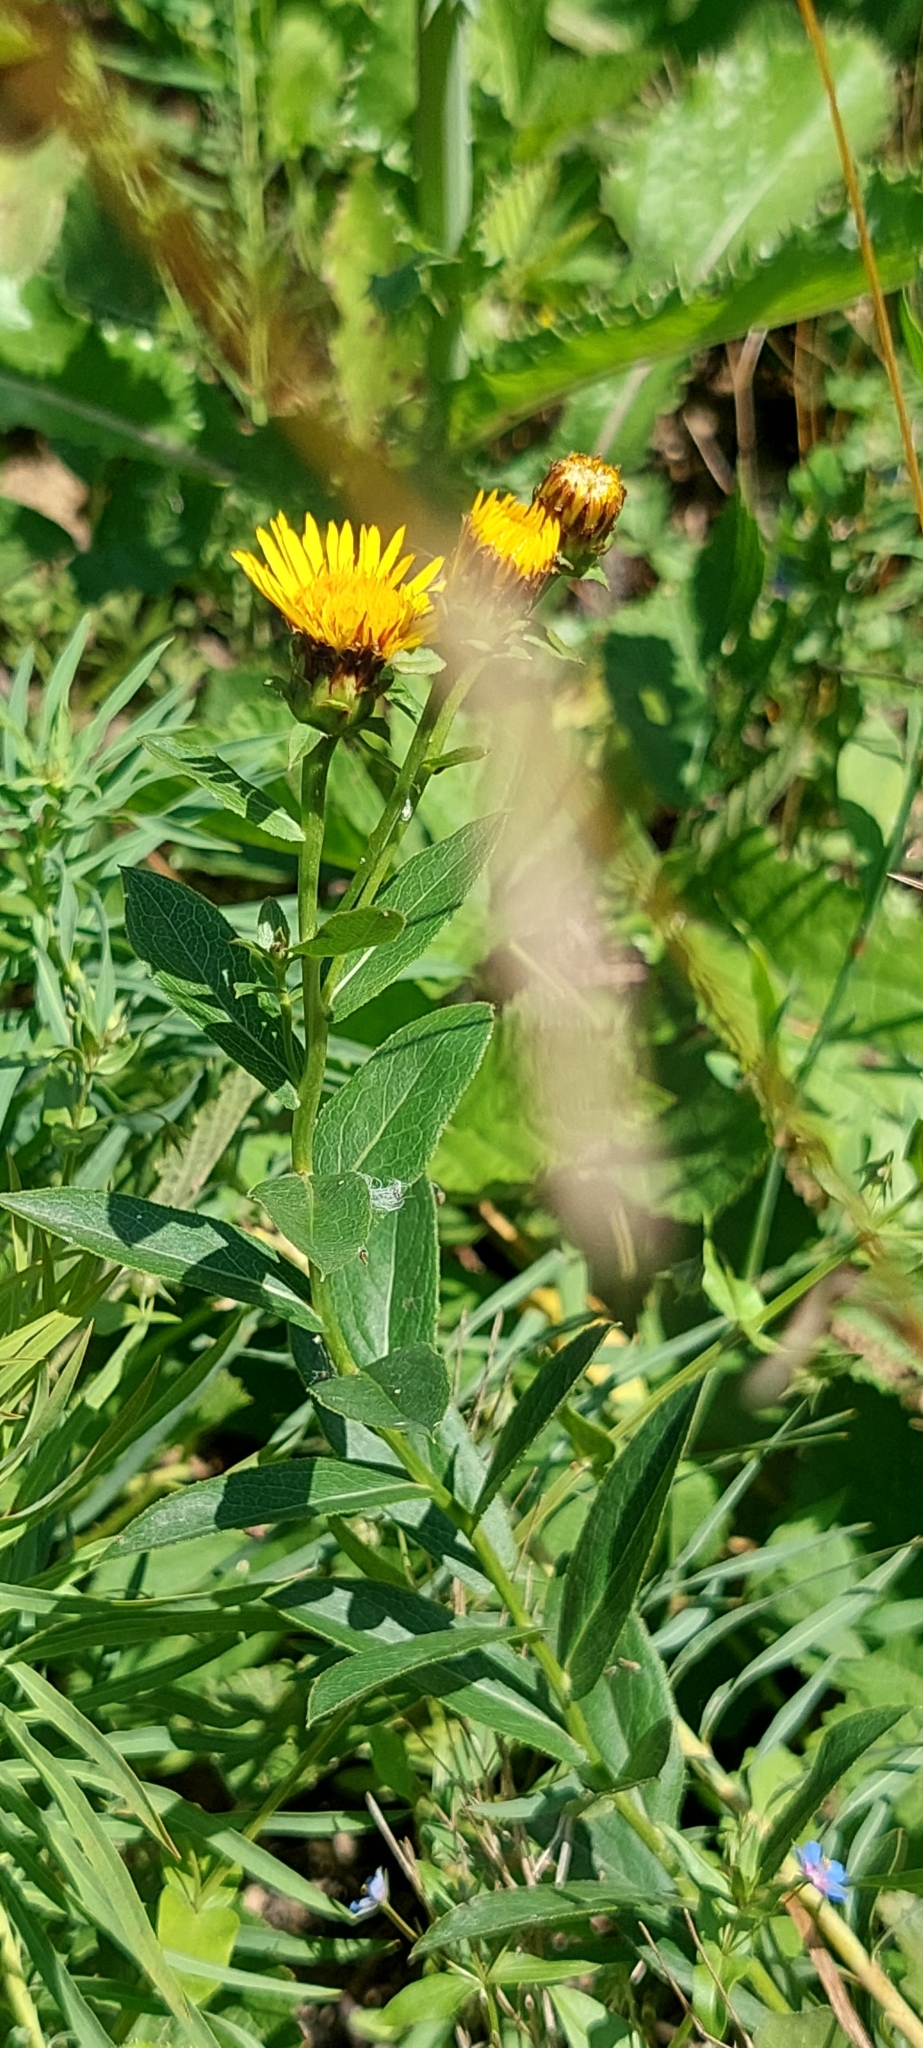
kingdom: Plantae
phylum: Tracheophyta
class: Magnoliopsida
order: Asterales
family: Asteraceae
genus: Pentanema
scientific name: Pentanema asperum
